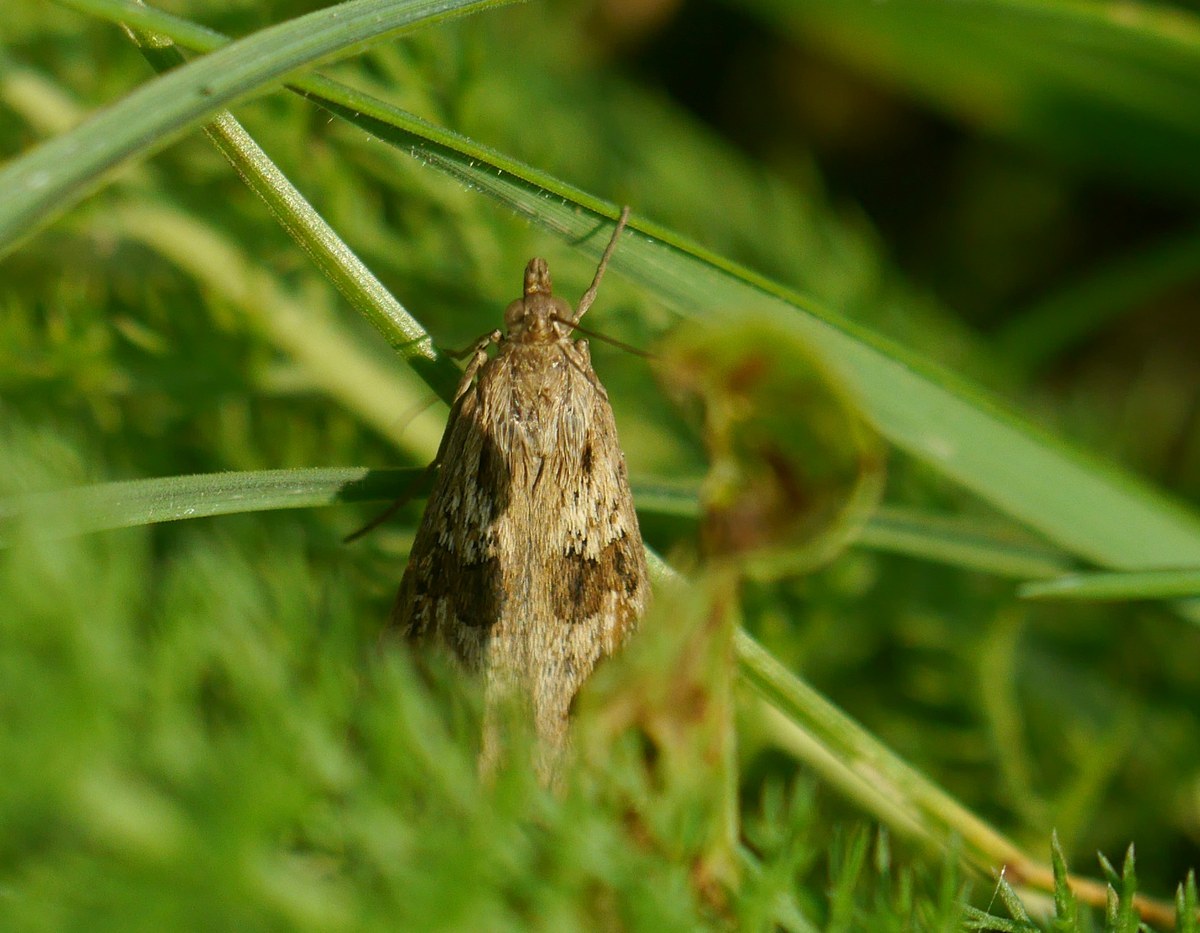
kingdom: Animalia
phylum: Arthropoda
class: Insecta
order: Lepidoptera
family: Crambidae
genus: Nomophila
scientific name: Nomophila noctuella
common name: Rush veneer
